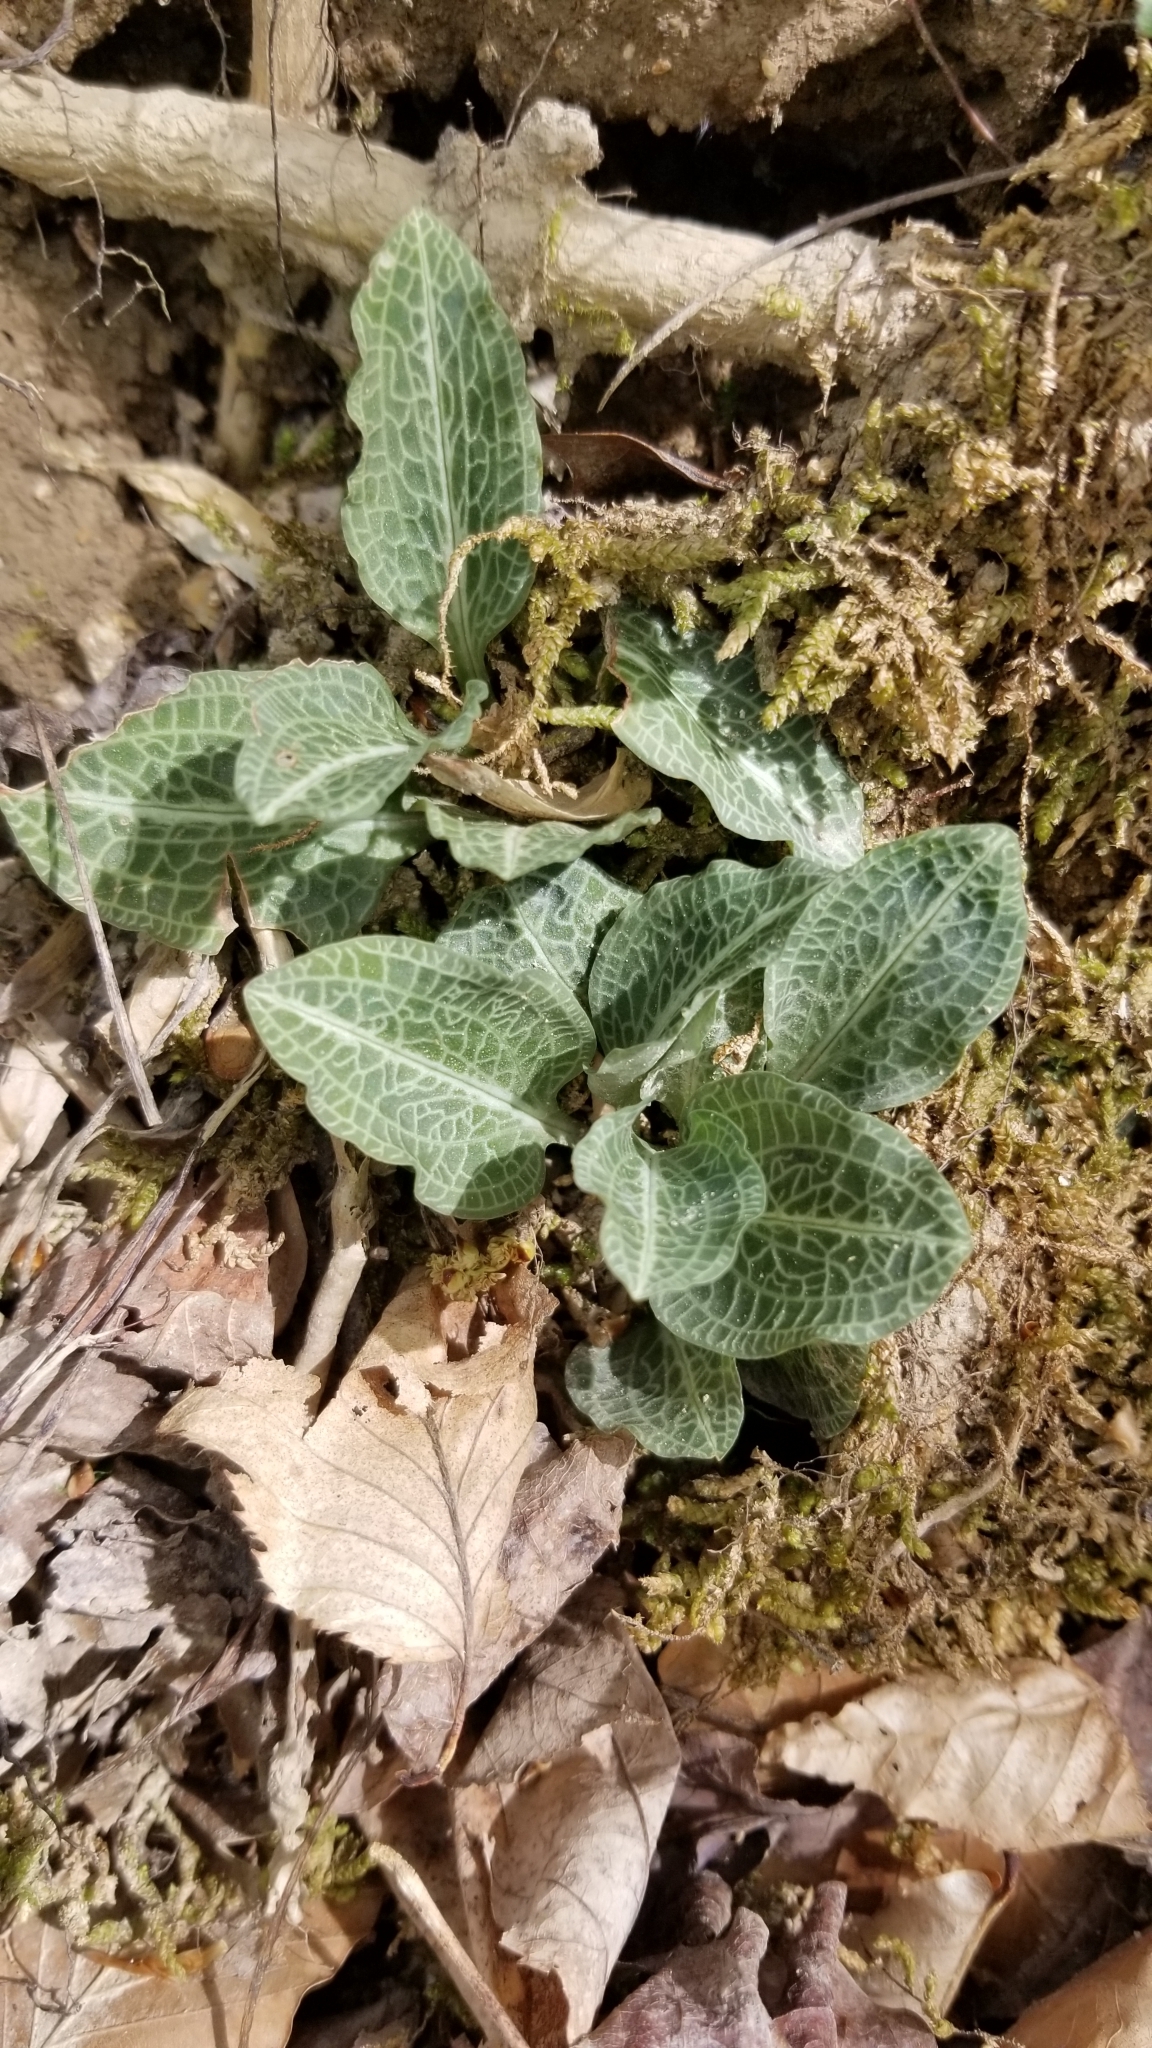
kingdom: Plantae
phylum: Tracheophyta
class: Liliopsida
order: Asparagales
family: Orchidaceae
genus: Goodyera
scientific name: Goodyera pubescens
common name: Downy rattlesnake-plantain
